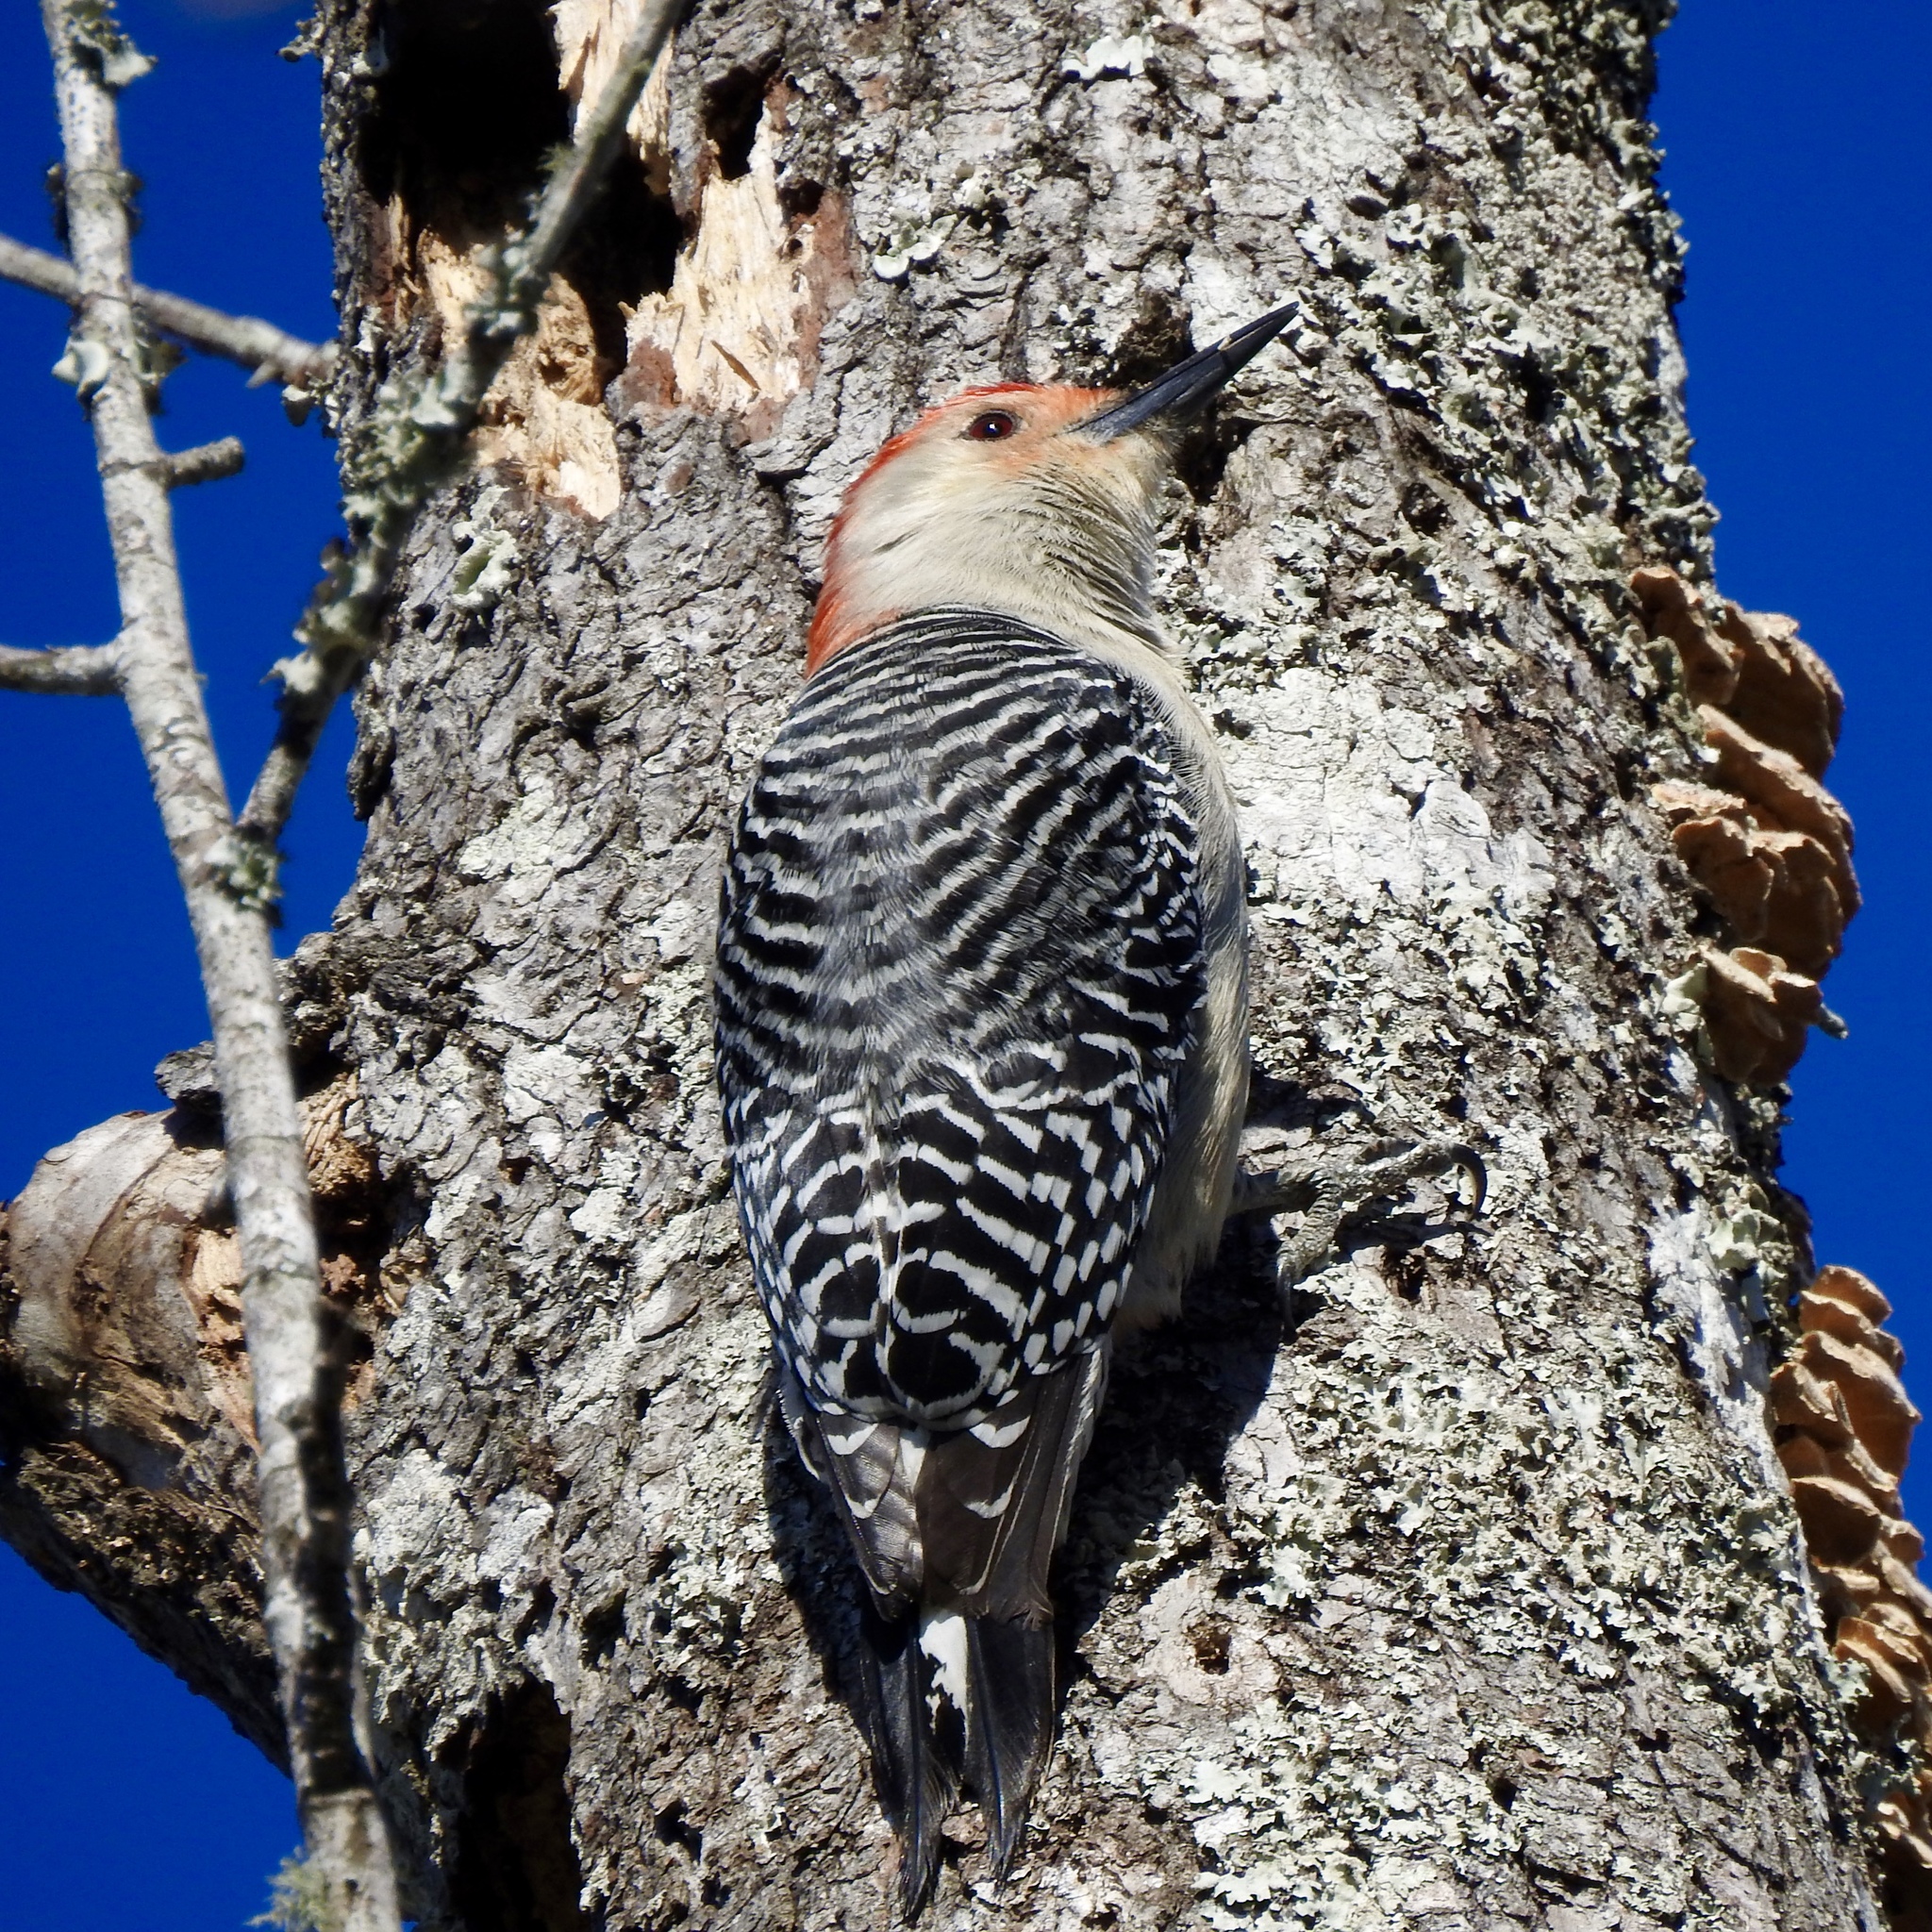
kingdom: Animalia
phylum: Chordata
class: Aves
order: Piciformes
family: Picidae
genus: Melanerpes
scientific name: Melanerpes carolinus
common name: Red-bellied woodpecker
